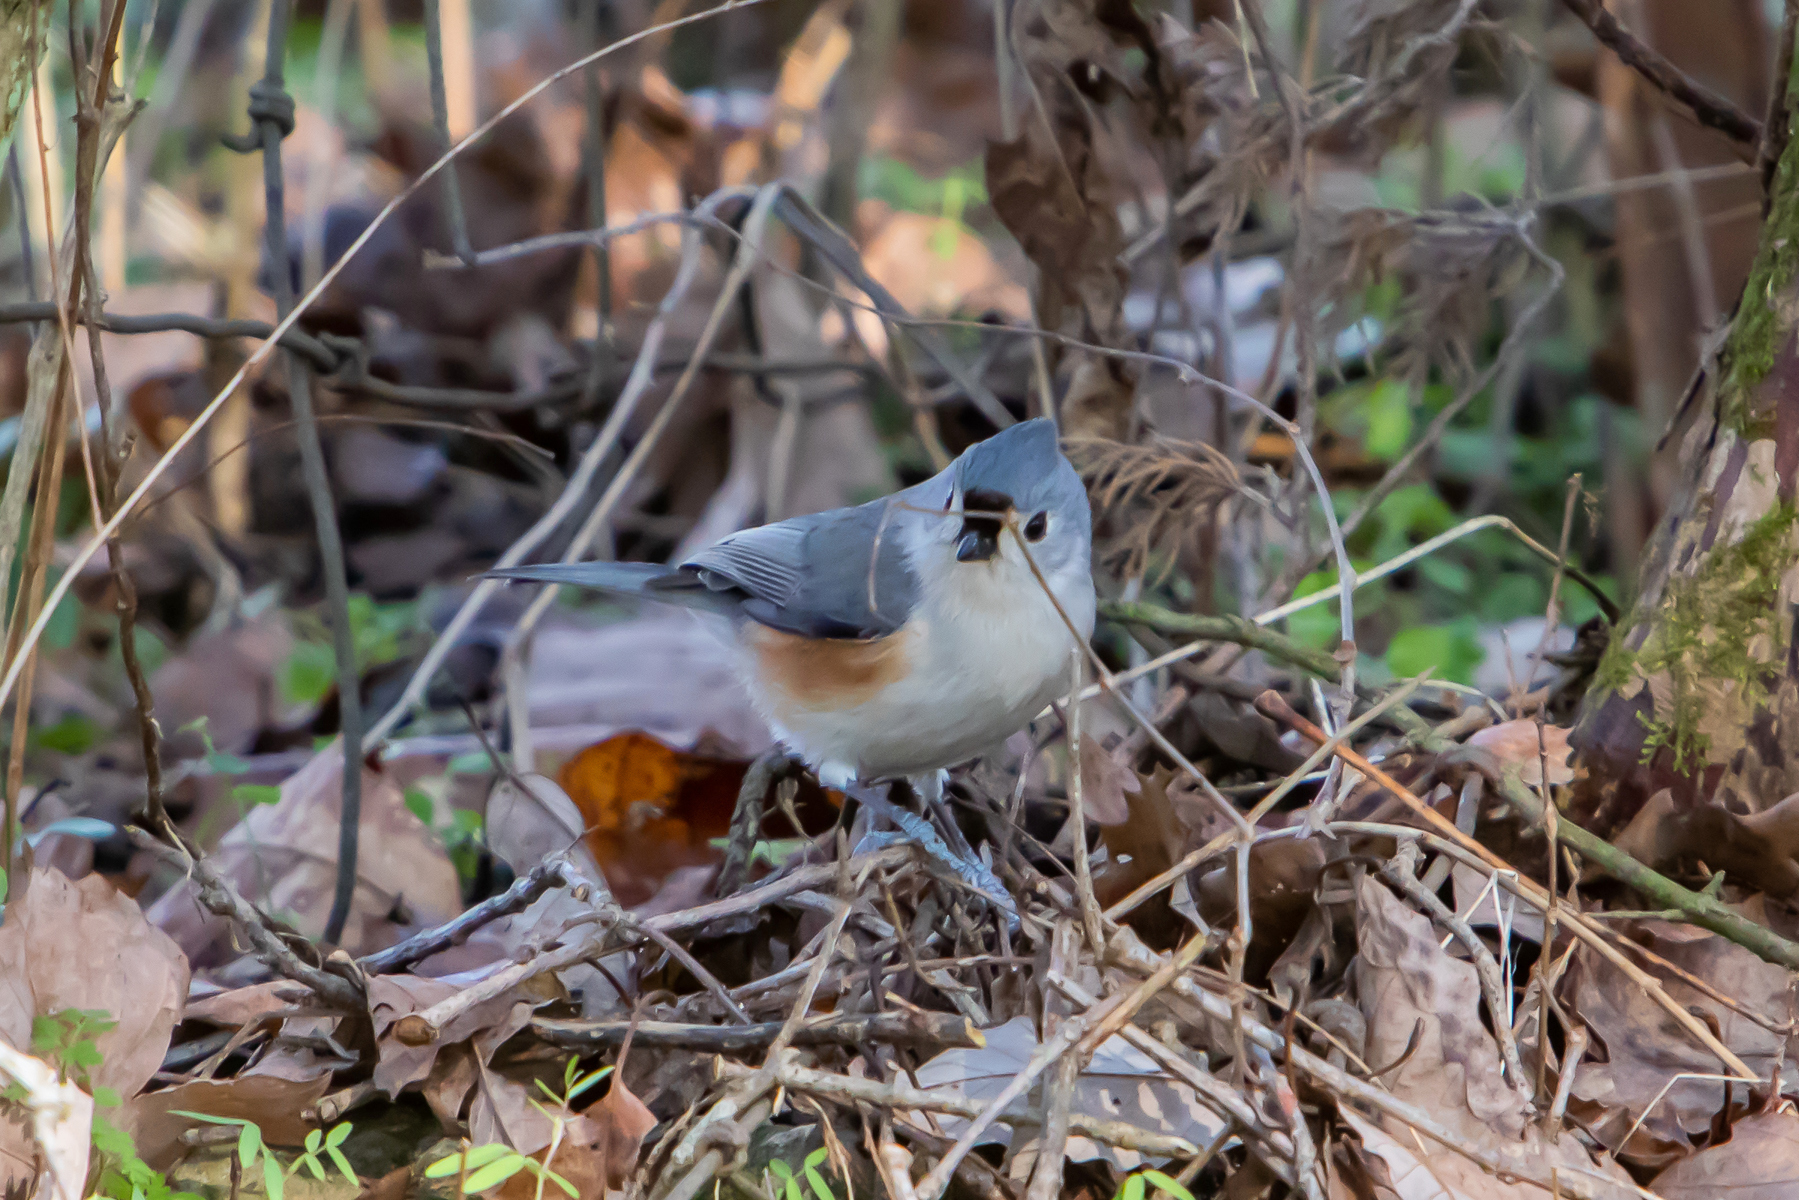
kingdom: Animalia
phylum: Chordata
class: Aves
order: Passeriformes
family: Paridae
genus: Baeolophus
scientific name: Baeolophus bicolor
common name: Tufted titmouse
